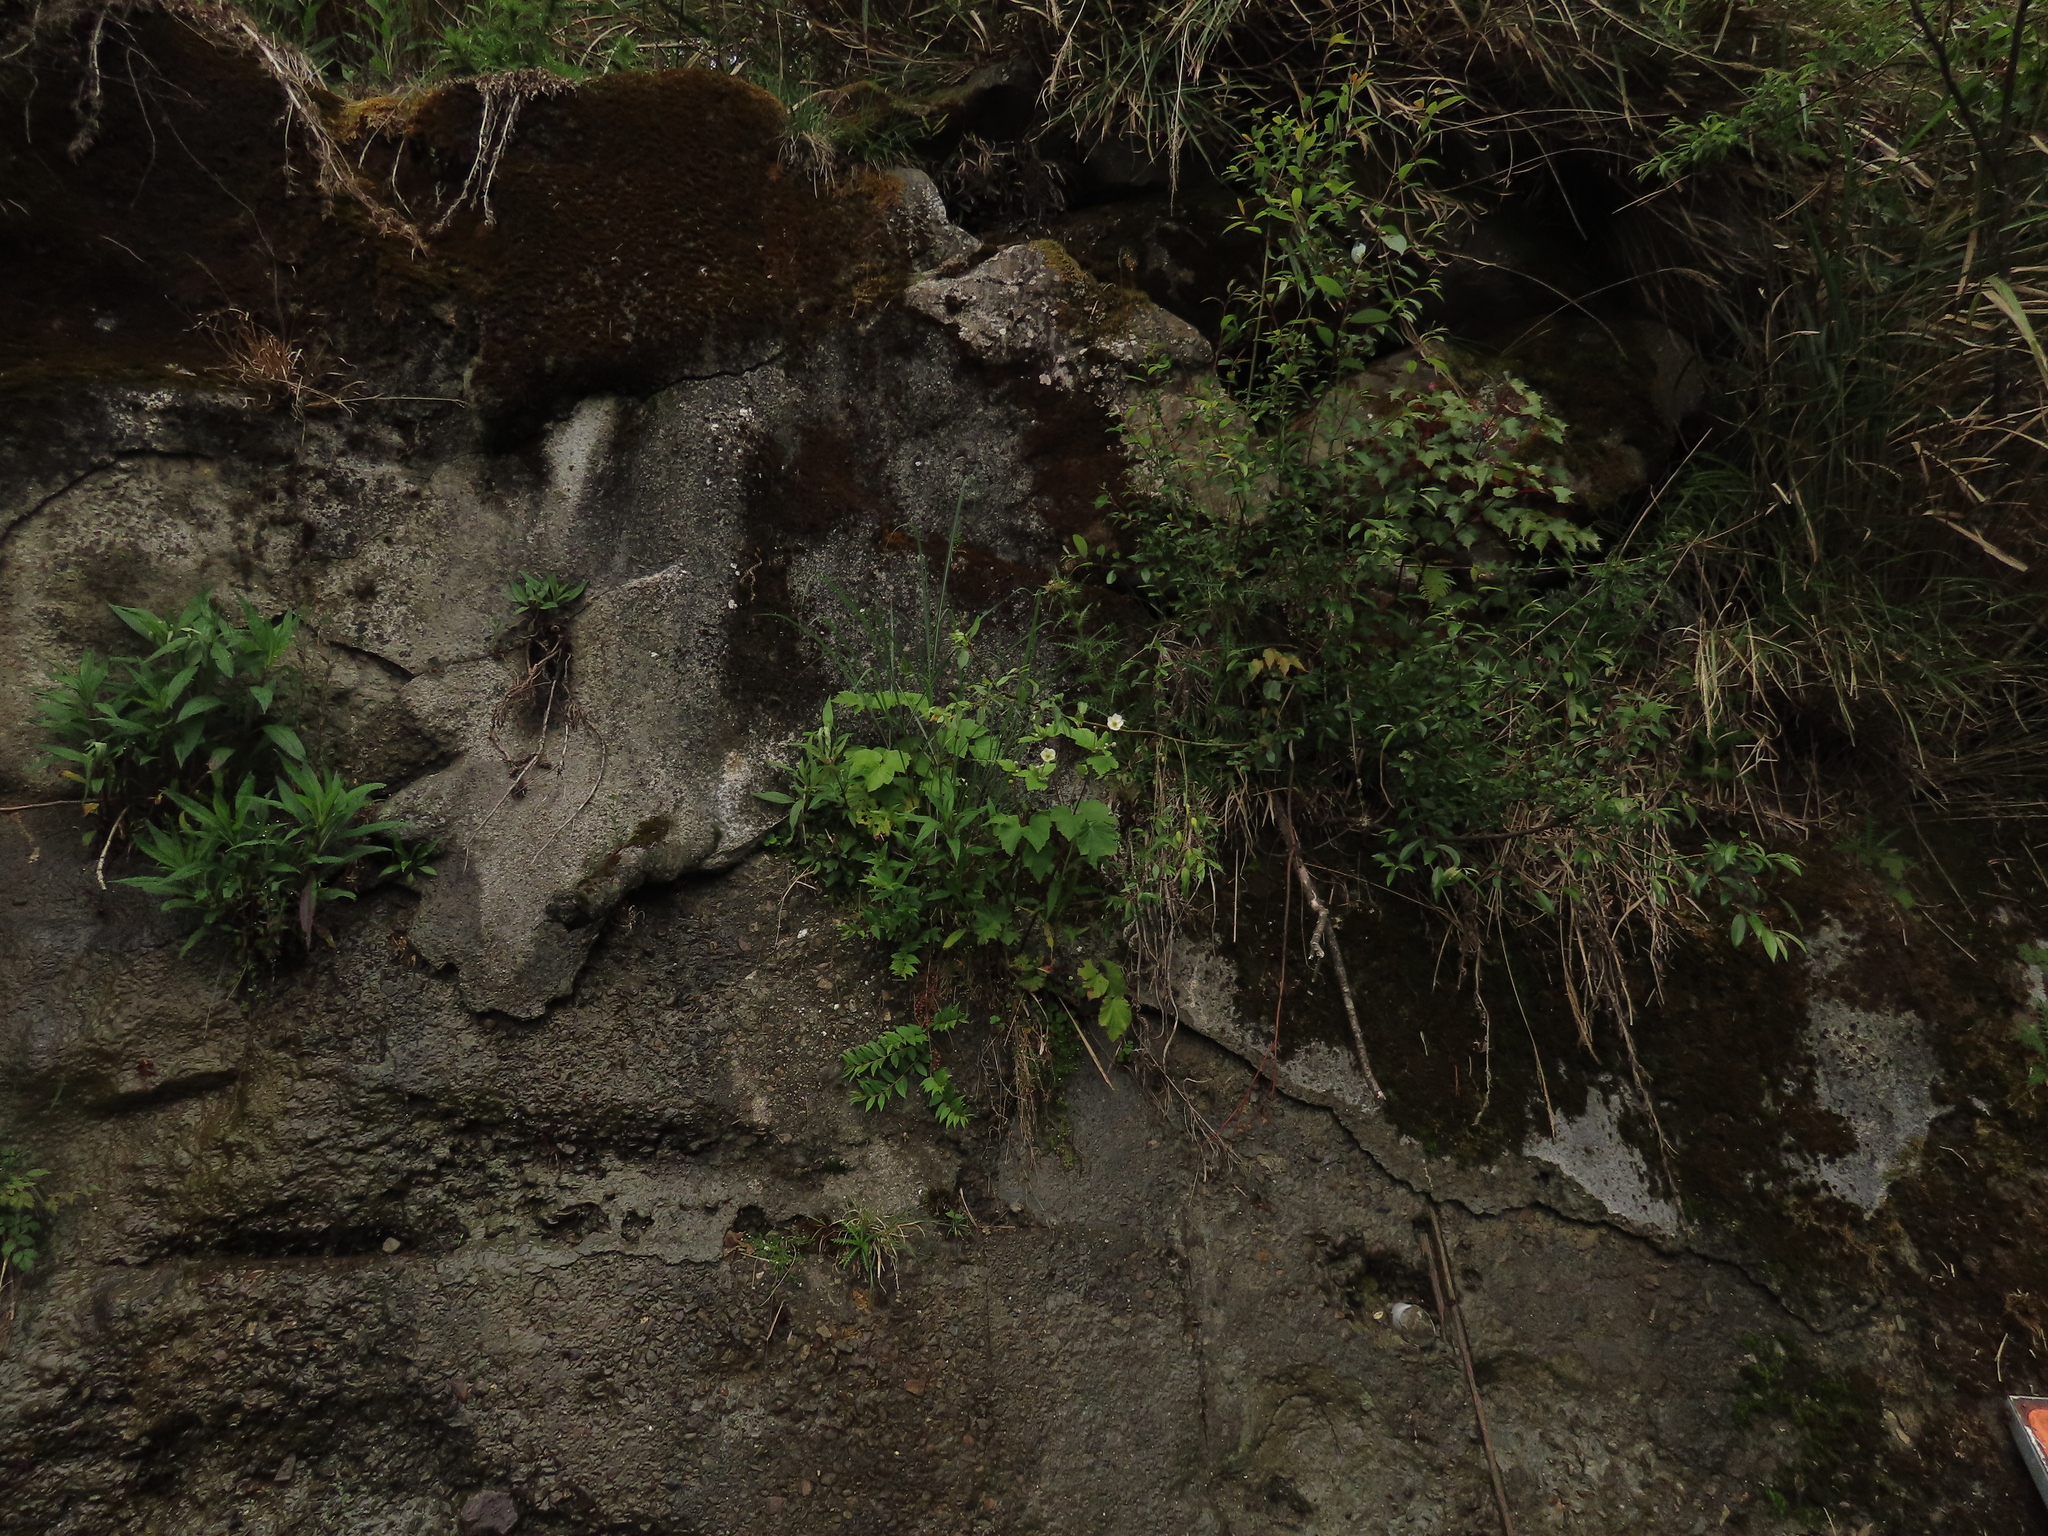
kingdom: Plantae
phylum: Tracheophyta
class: Magnoliopsida
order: Cucurbitales
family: Coriariaceae
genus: Coriaria
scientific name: Coriaria japonica
